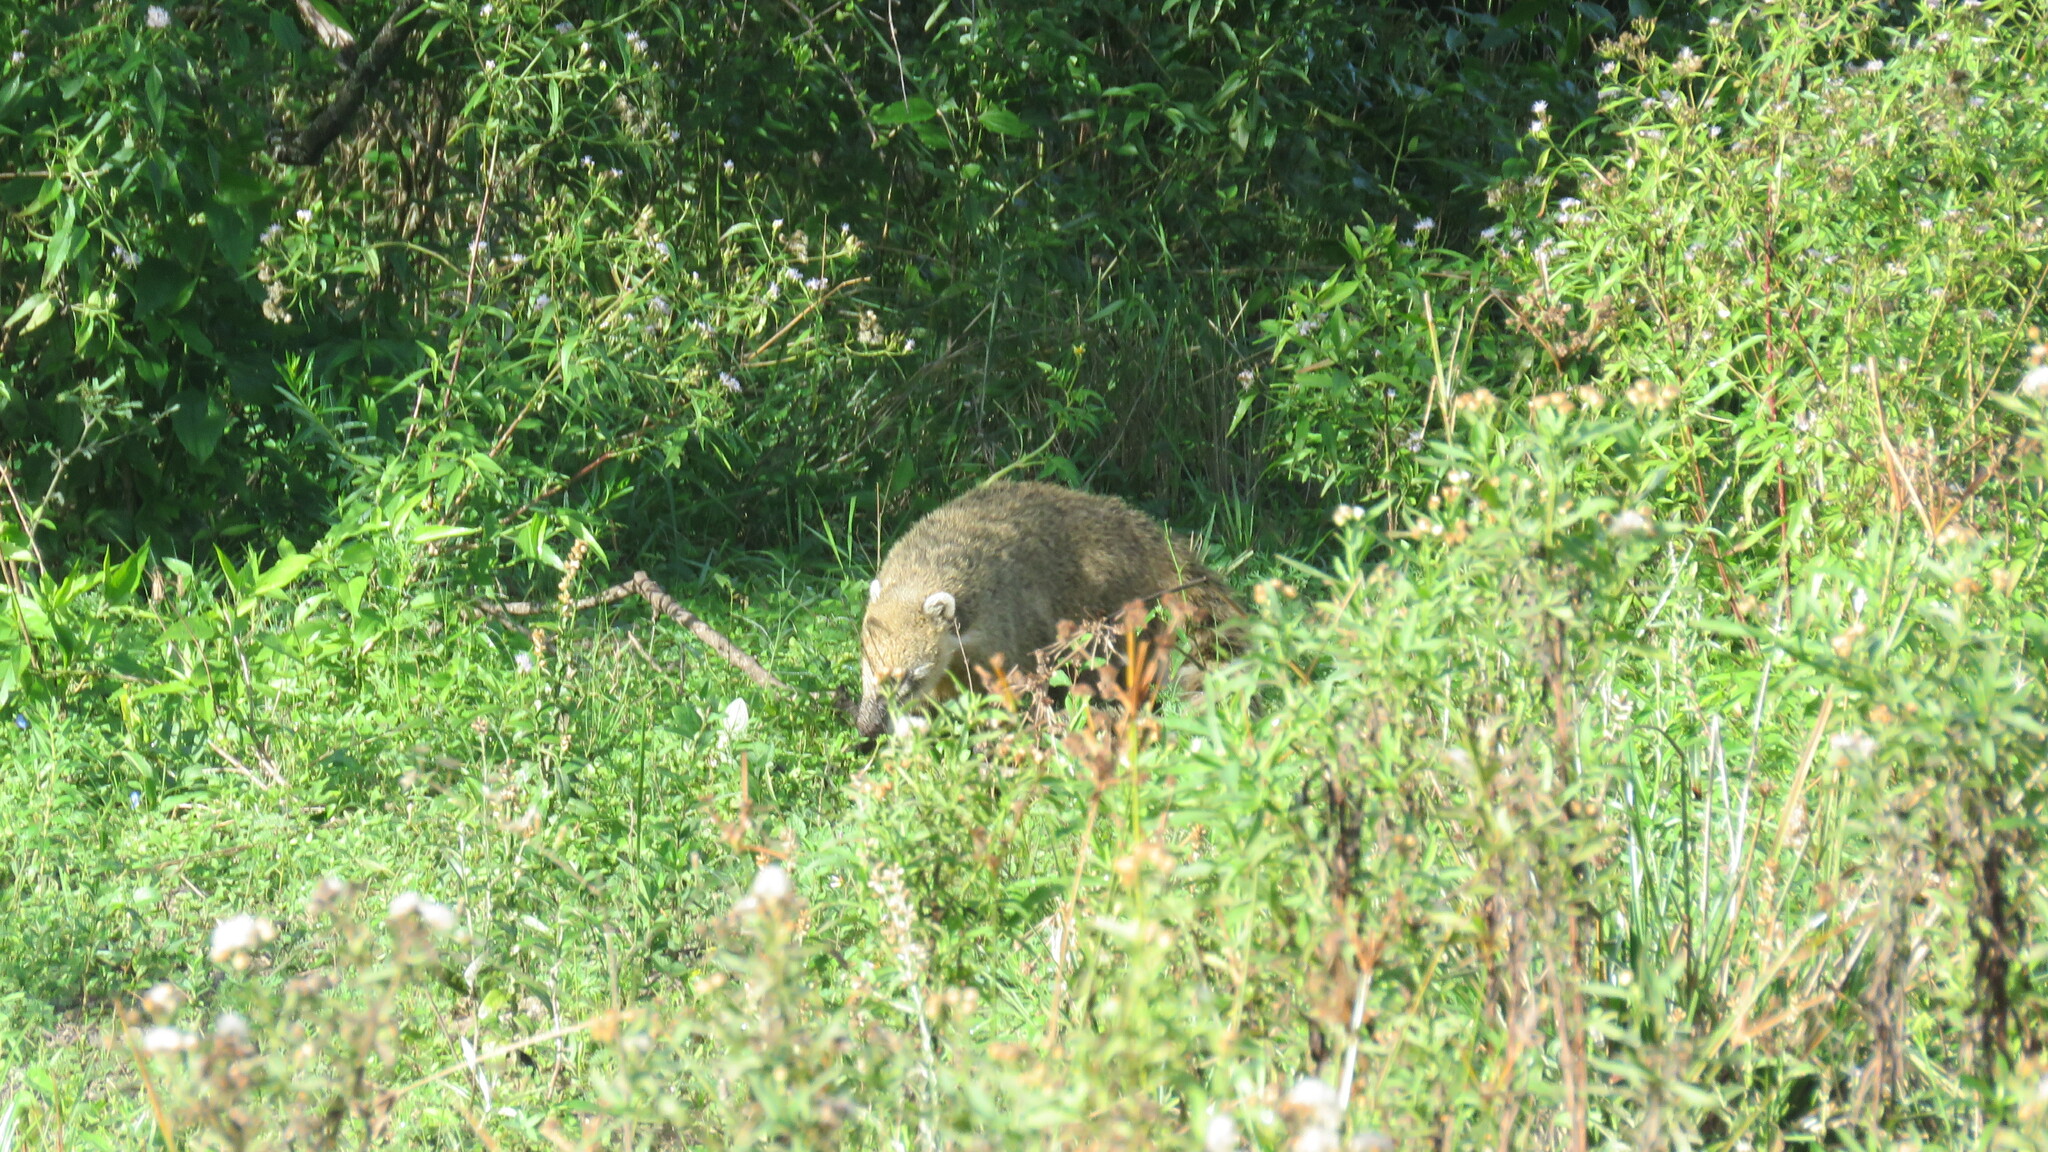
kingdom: Animalia
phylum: Chordata
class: Mammalia
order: Carnivora
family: Procyonidae
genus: Nasua
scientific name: Nasua nasua
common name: South american coati
